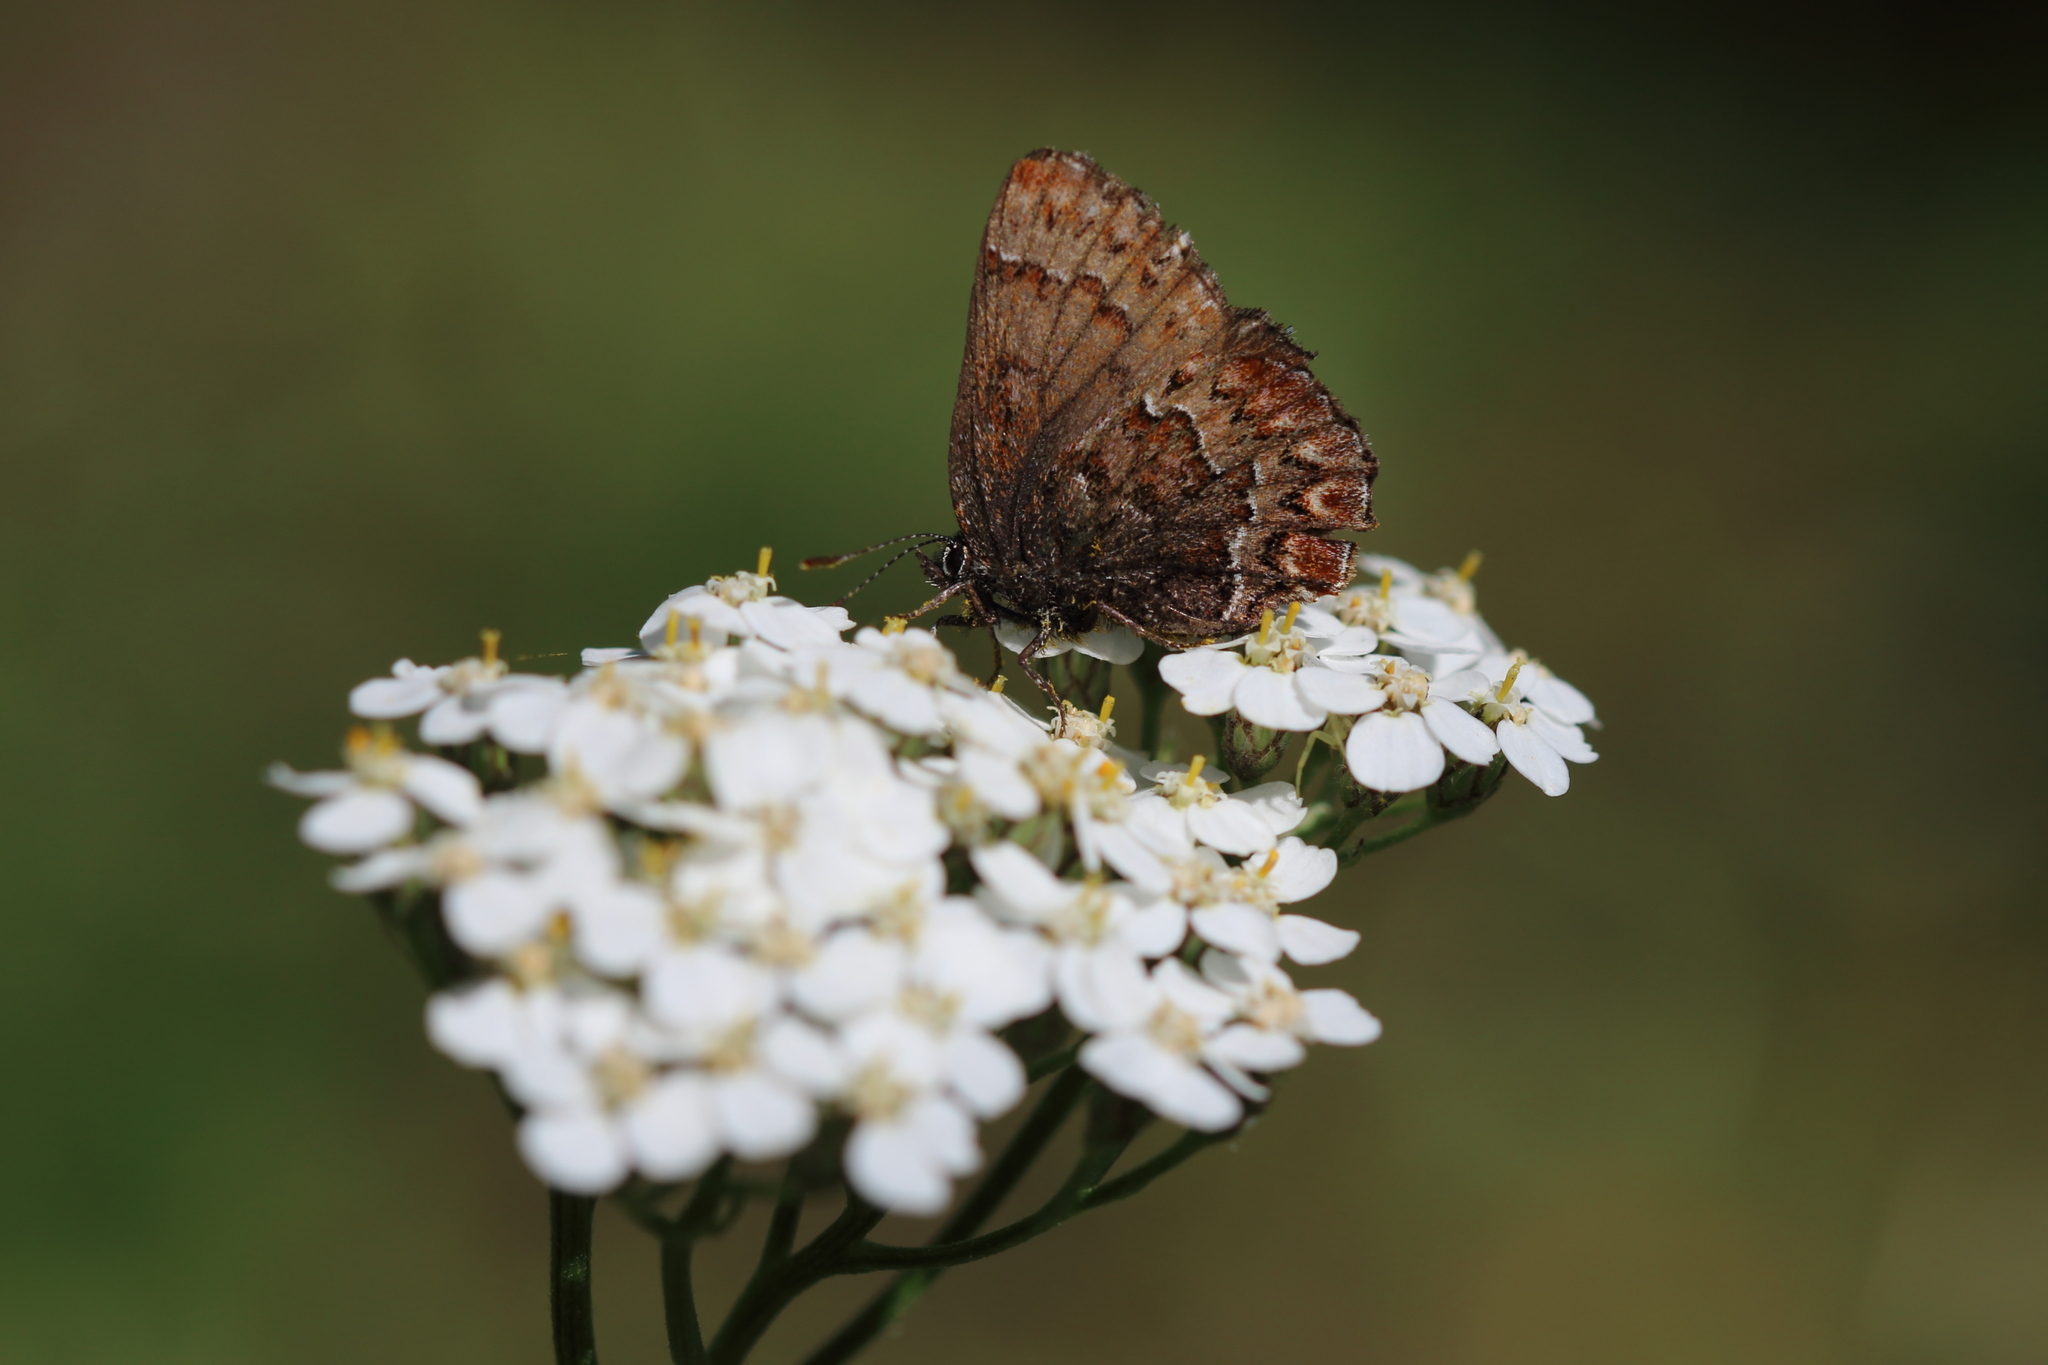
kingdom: Animalia
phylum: Arthropoda
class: Insecta
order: Lepidoptera
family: Lycaenidae
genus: Incisalia
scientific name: Incisalia eryphon
